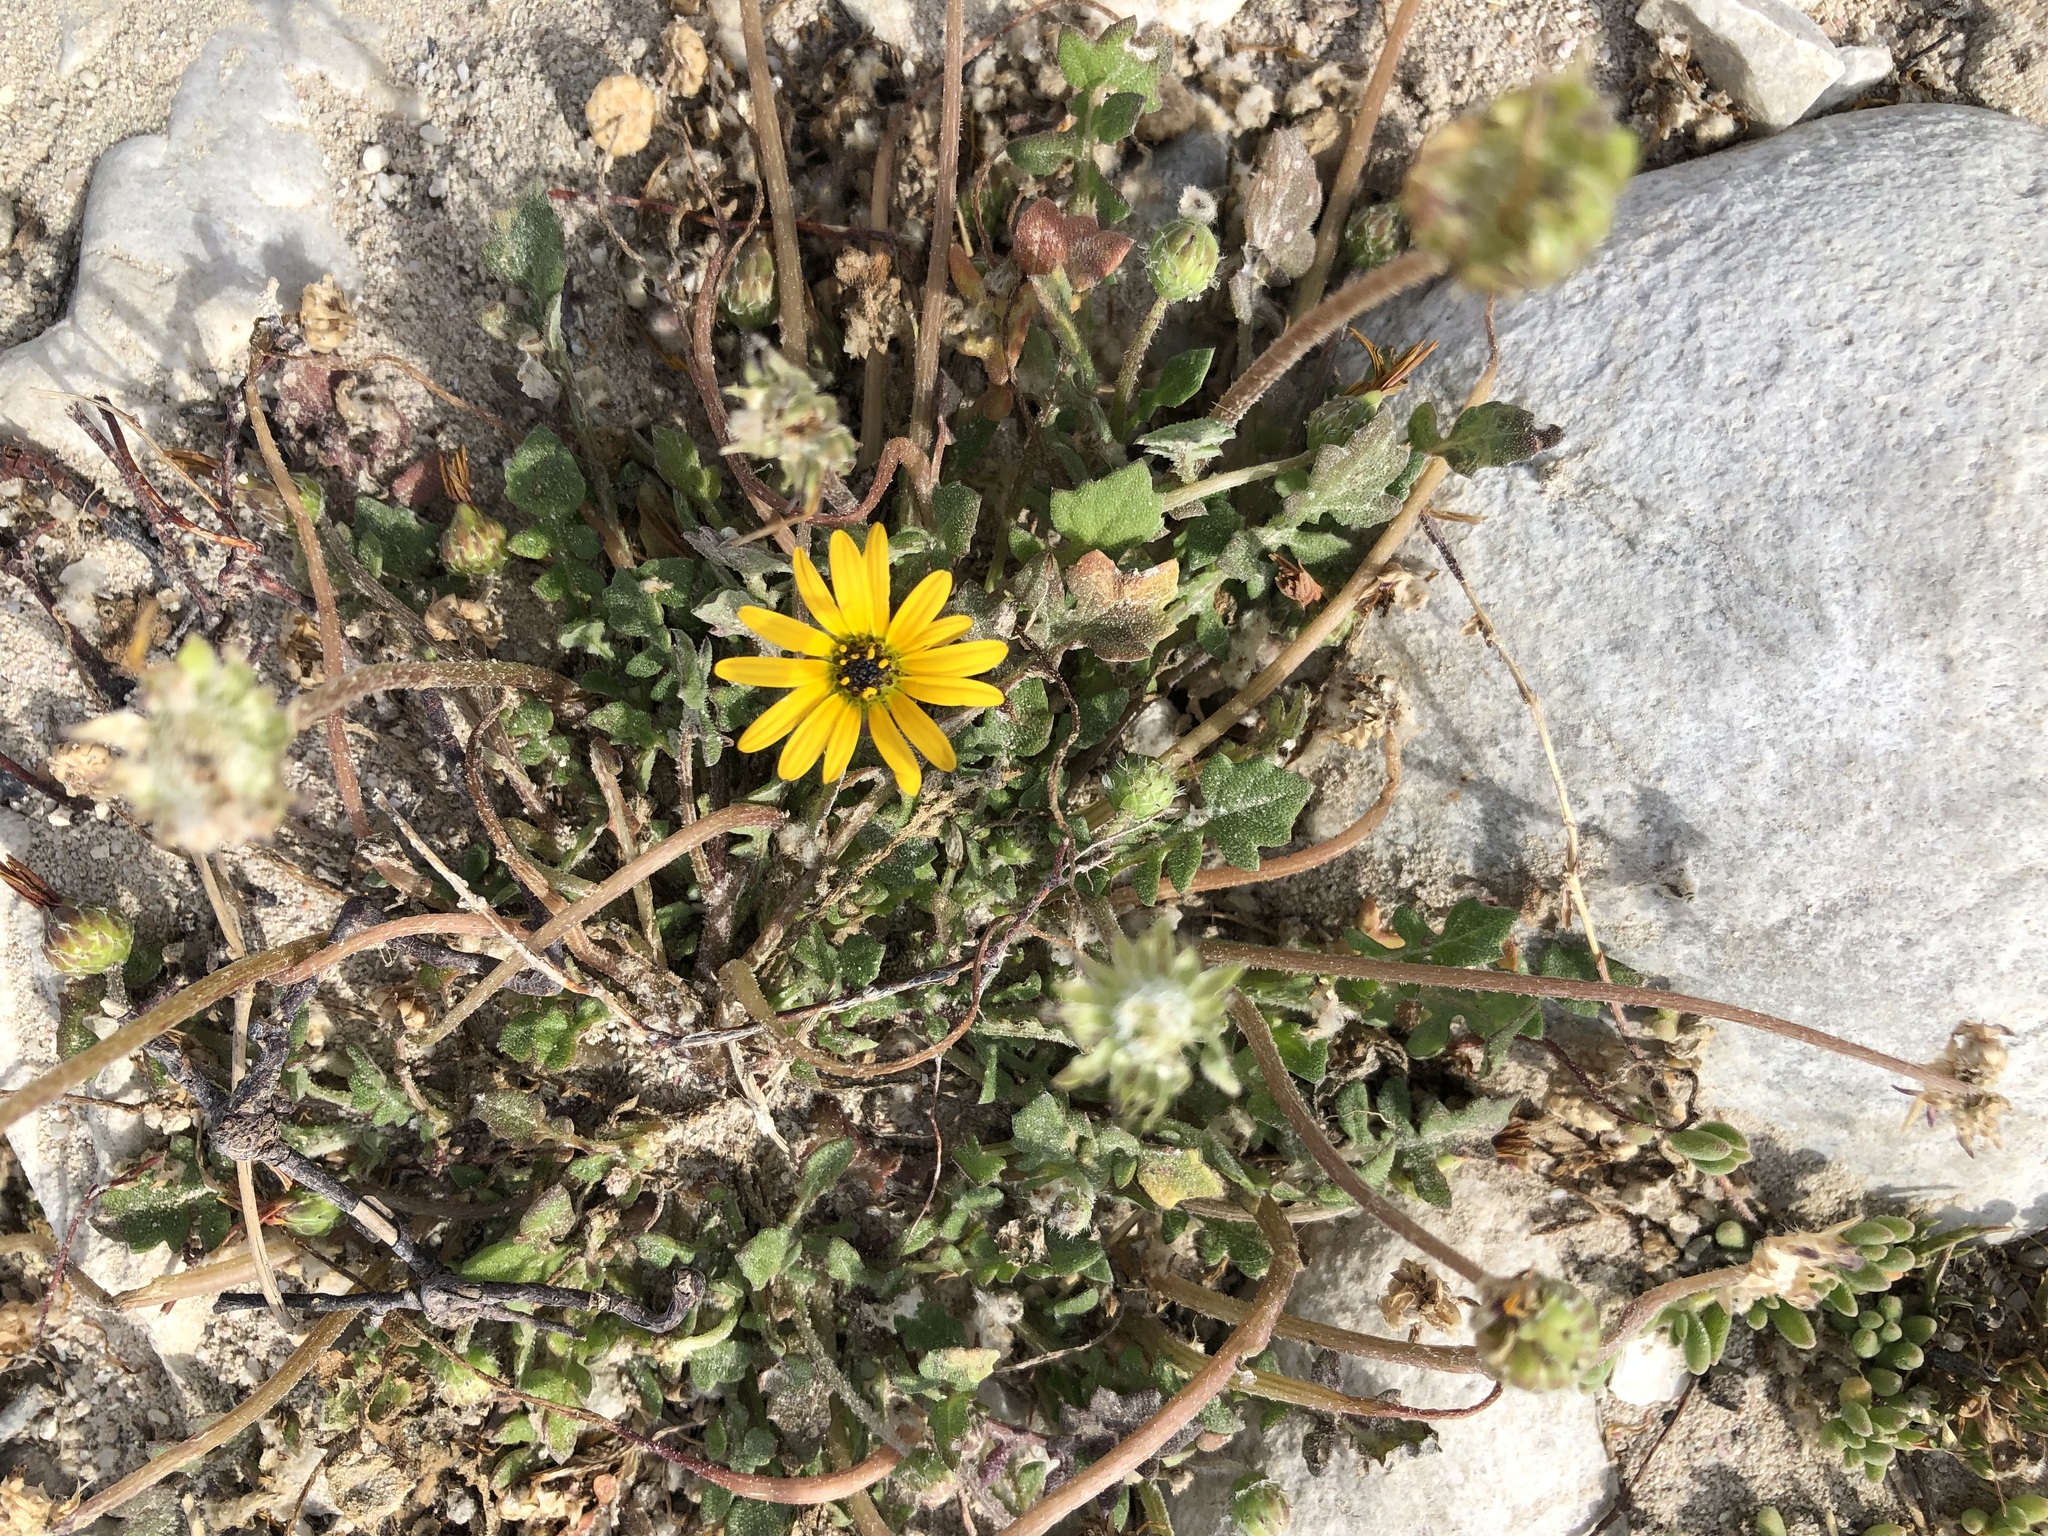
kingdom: Plantae
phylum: Tracheophyta
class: Magnoliopsida
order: Asterales
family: Asteraceae
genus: Arctotheca
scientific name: Arctotheca calendula
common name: Capeweed
